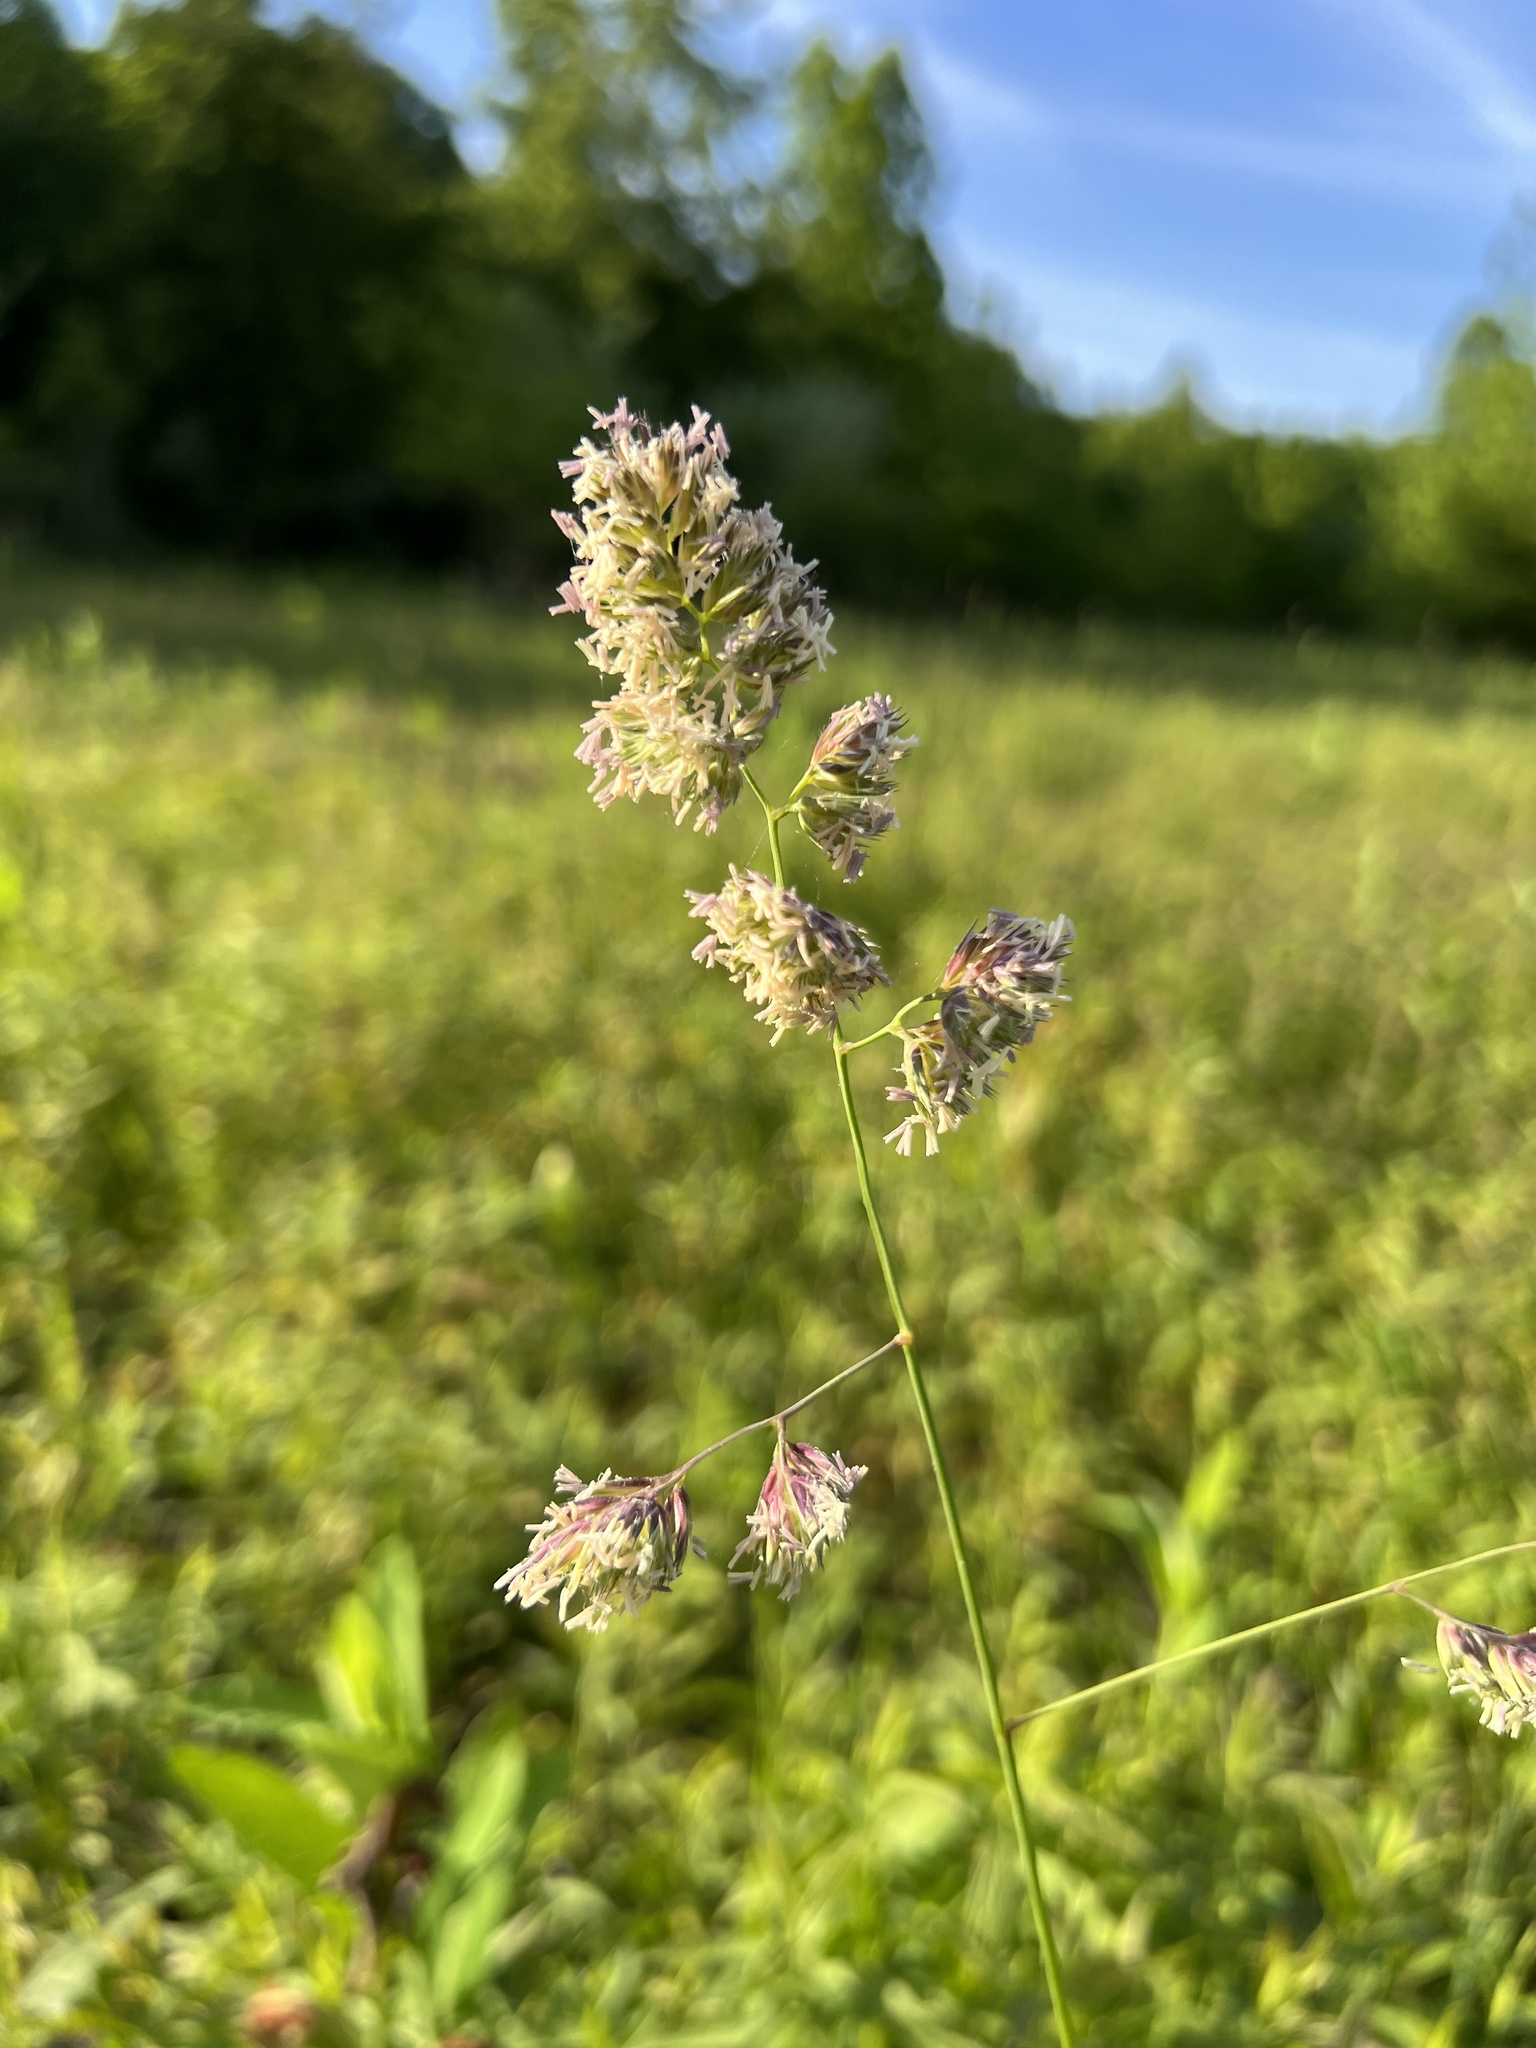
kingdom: Plantae
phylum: Tracheophyta
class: Liliopsida
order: Poales
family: Poaceae
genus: Dactylis
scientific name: Dactylis glomerata
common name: Orchardgrass
